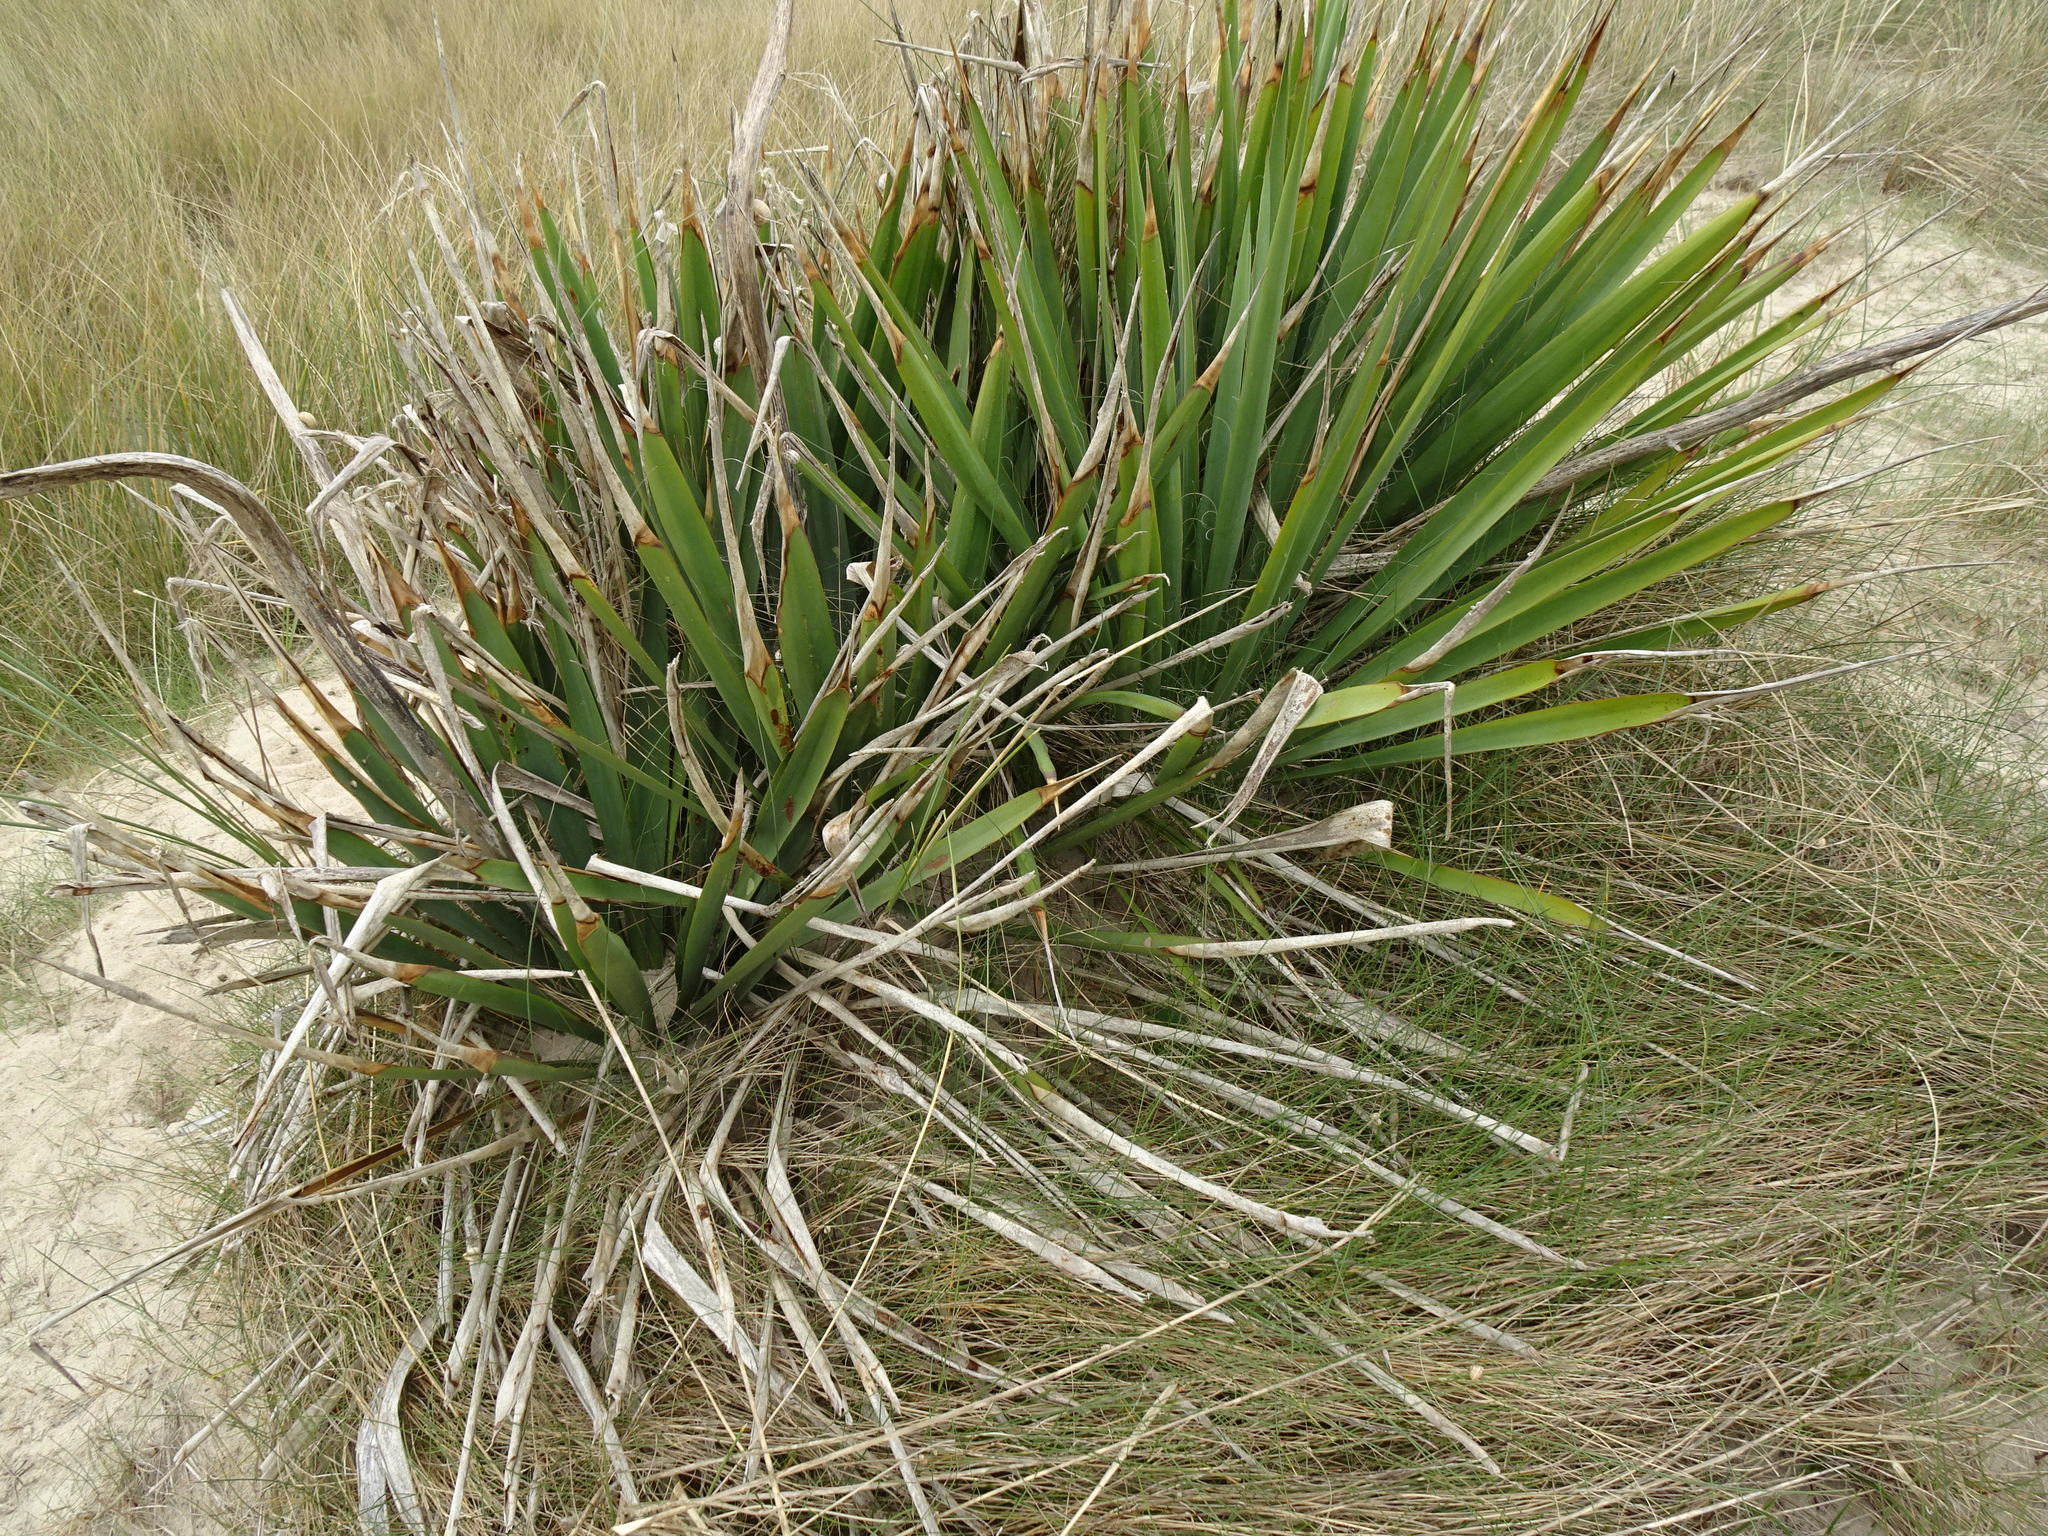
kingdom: Plantae
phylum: Tracheophyta
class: Liliopsida
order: Asparagales
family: Asparagaceae
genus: Yucca
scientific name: Yucca gloriosa
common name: Spanish-dagger
